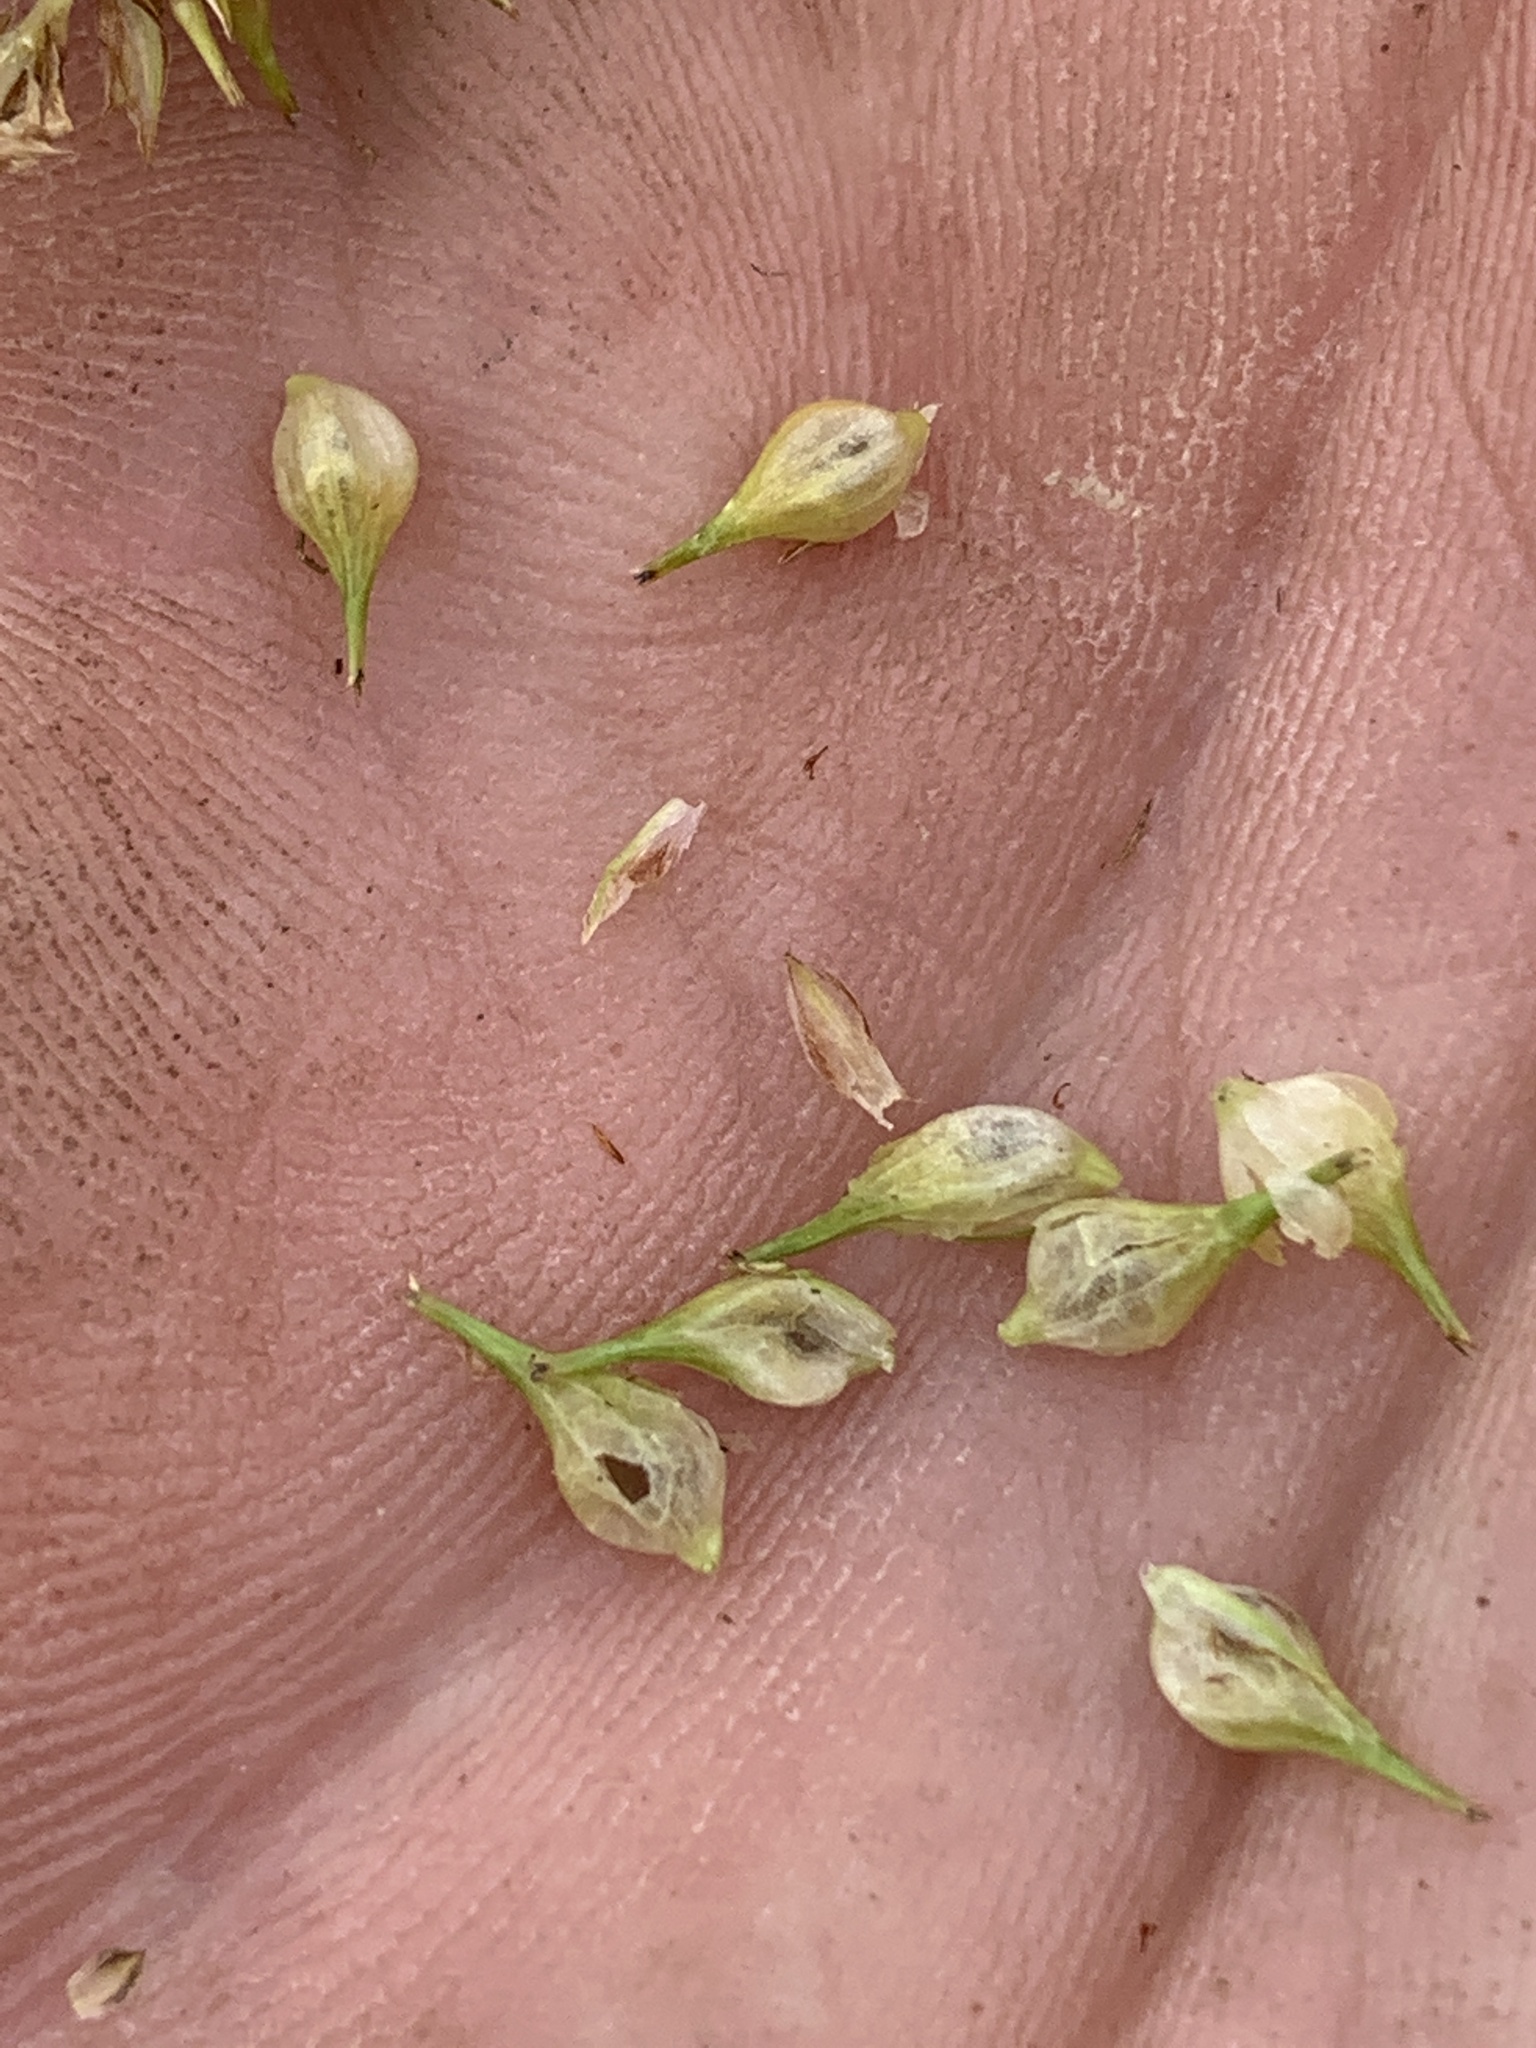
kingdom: Plantae
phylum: Tracheophyta
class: Liliopsida
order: Poales
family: Cyperaceae
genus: Carex
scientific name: Carex retrorsa
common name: Knot-sheath sedge
